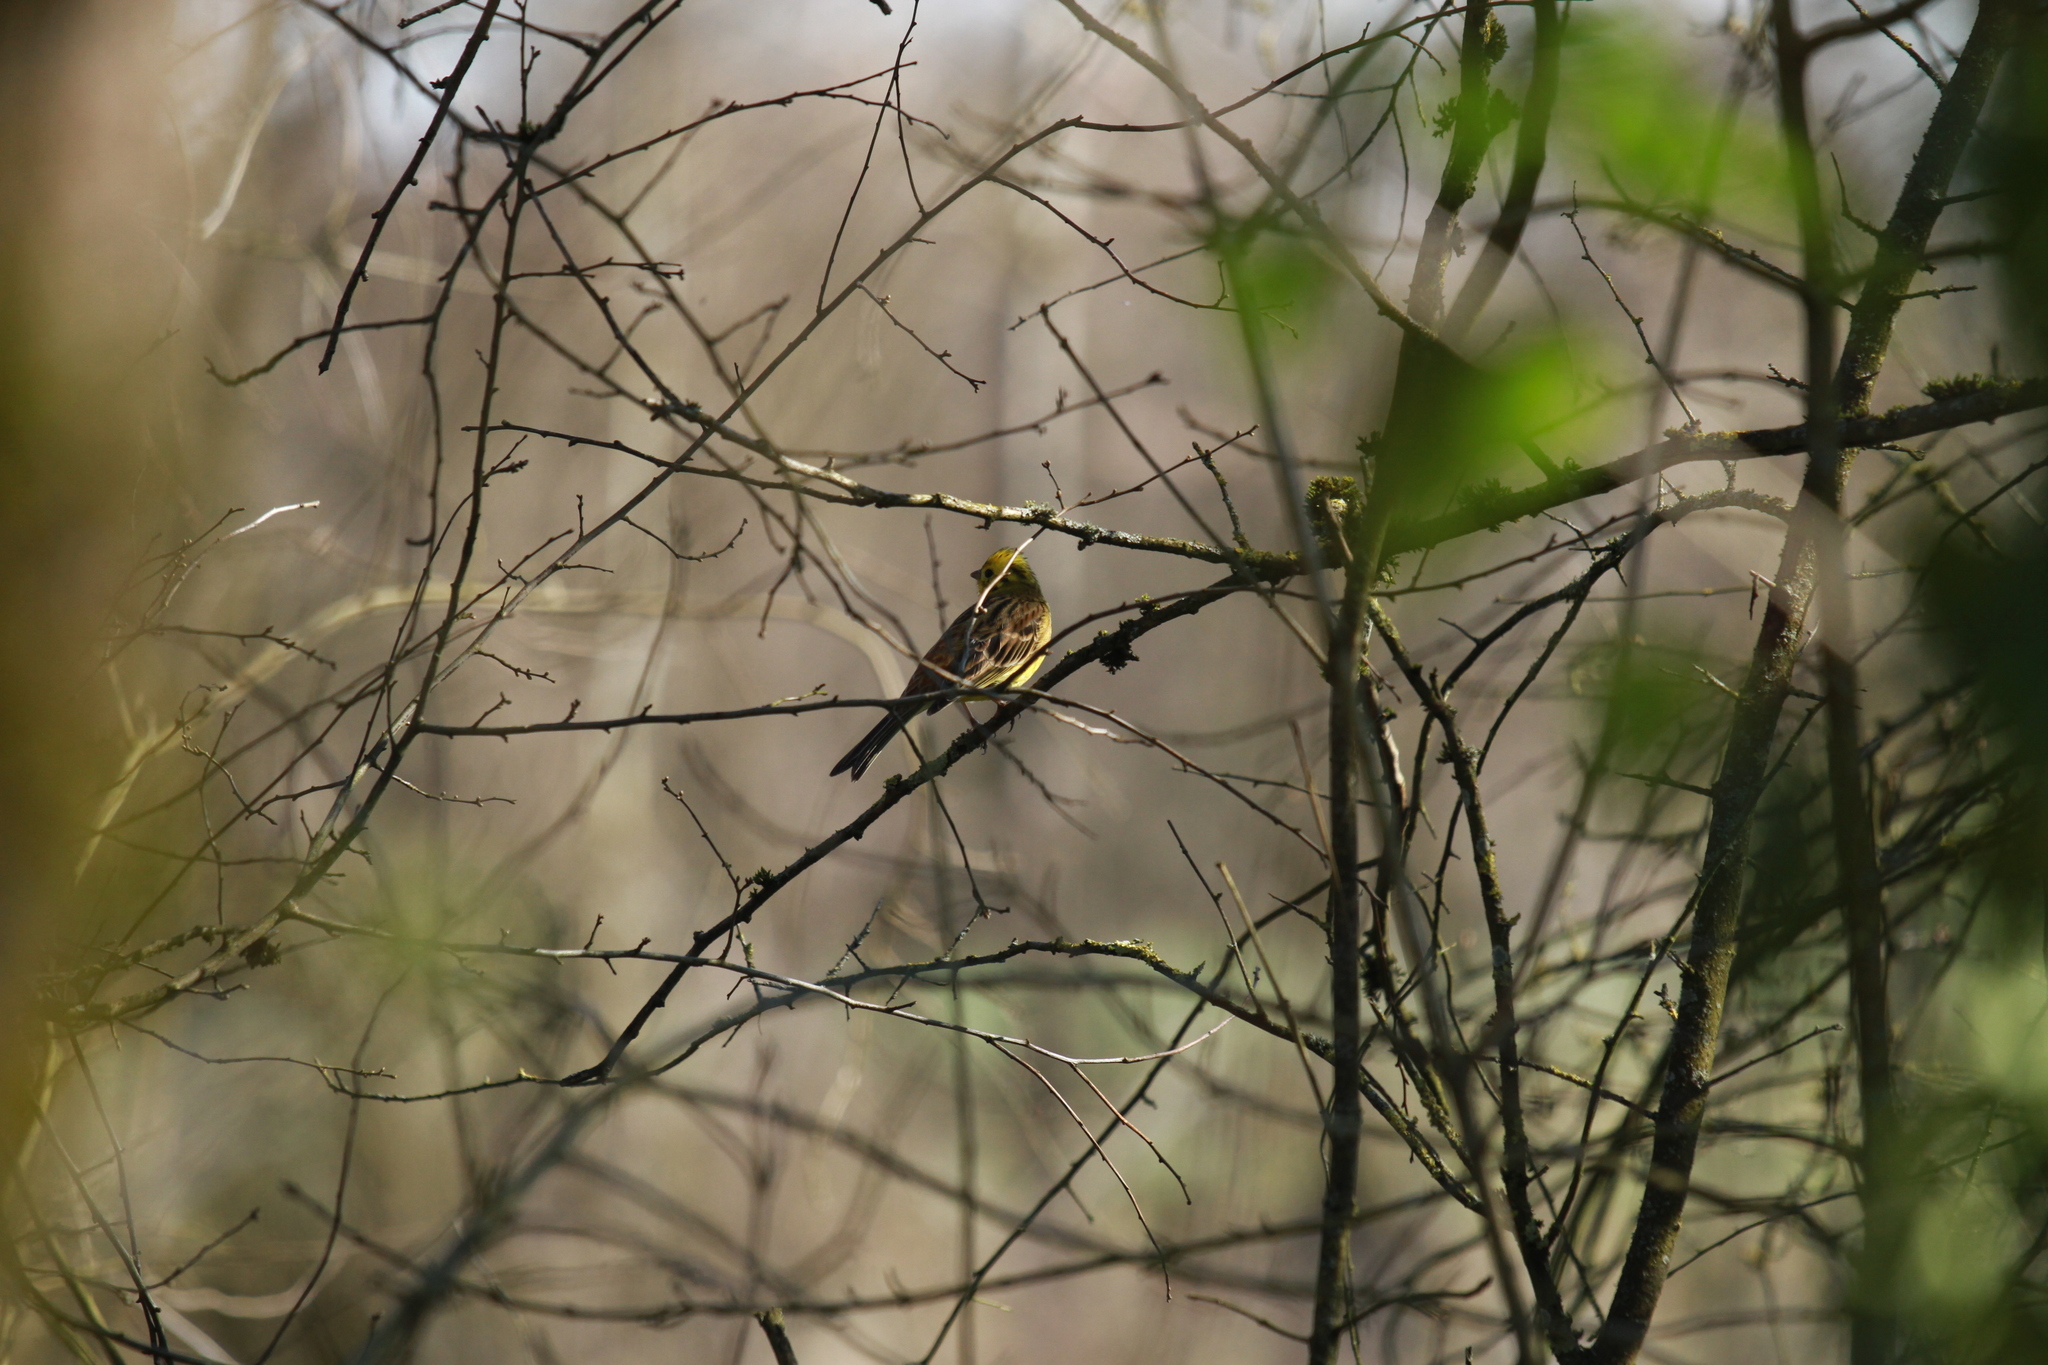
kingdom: Animalia
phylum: Chordata
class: Aves
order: Passeriformes
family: Emberizidae
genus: Emberiza
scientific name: Emberiza citrinella
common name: Yellowhammer
